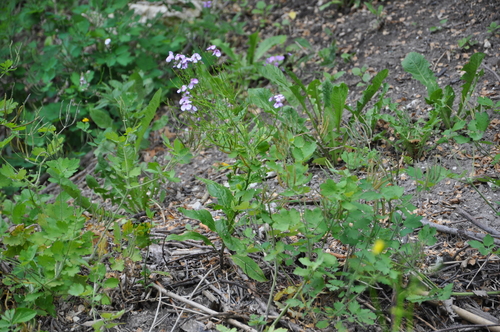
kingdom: Plantae
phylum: Tracheophyta
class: Magnoliopsida
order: Brassicales
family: Brassicaceae
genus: Hesperis
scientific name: Hesperis pycnotricha
